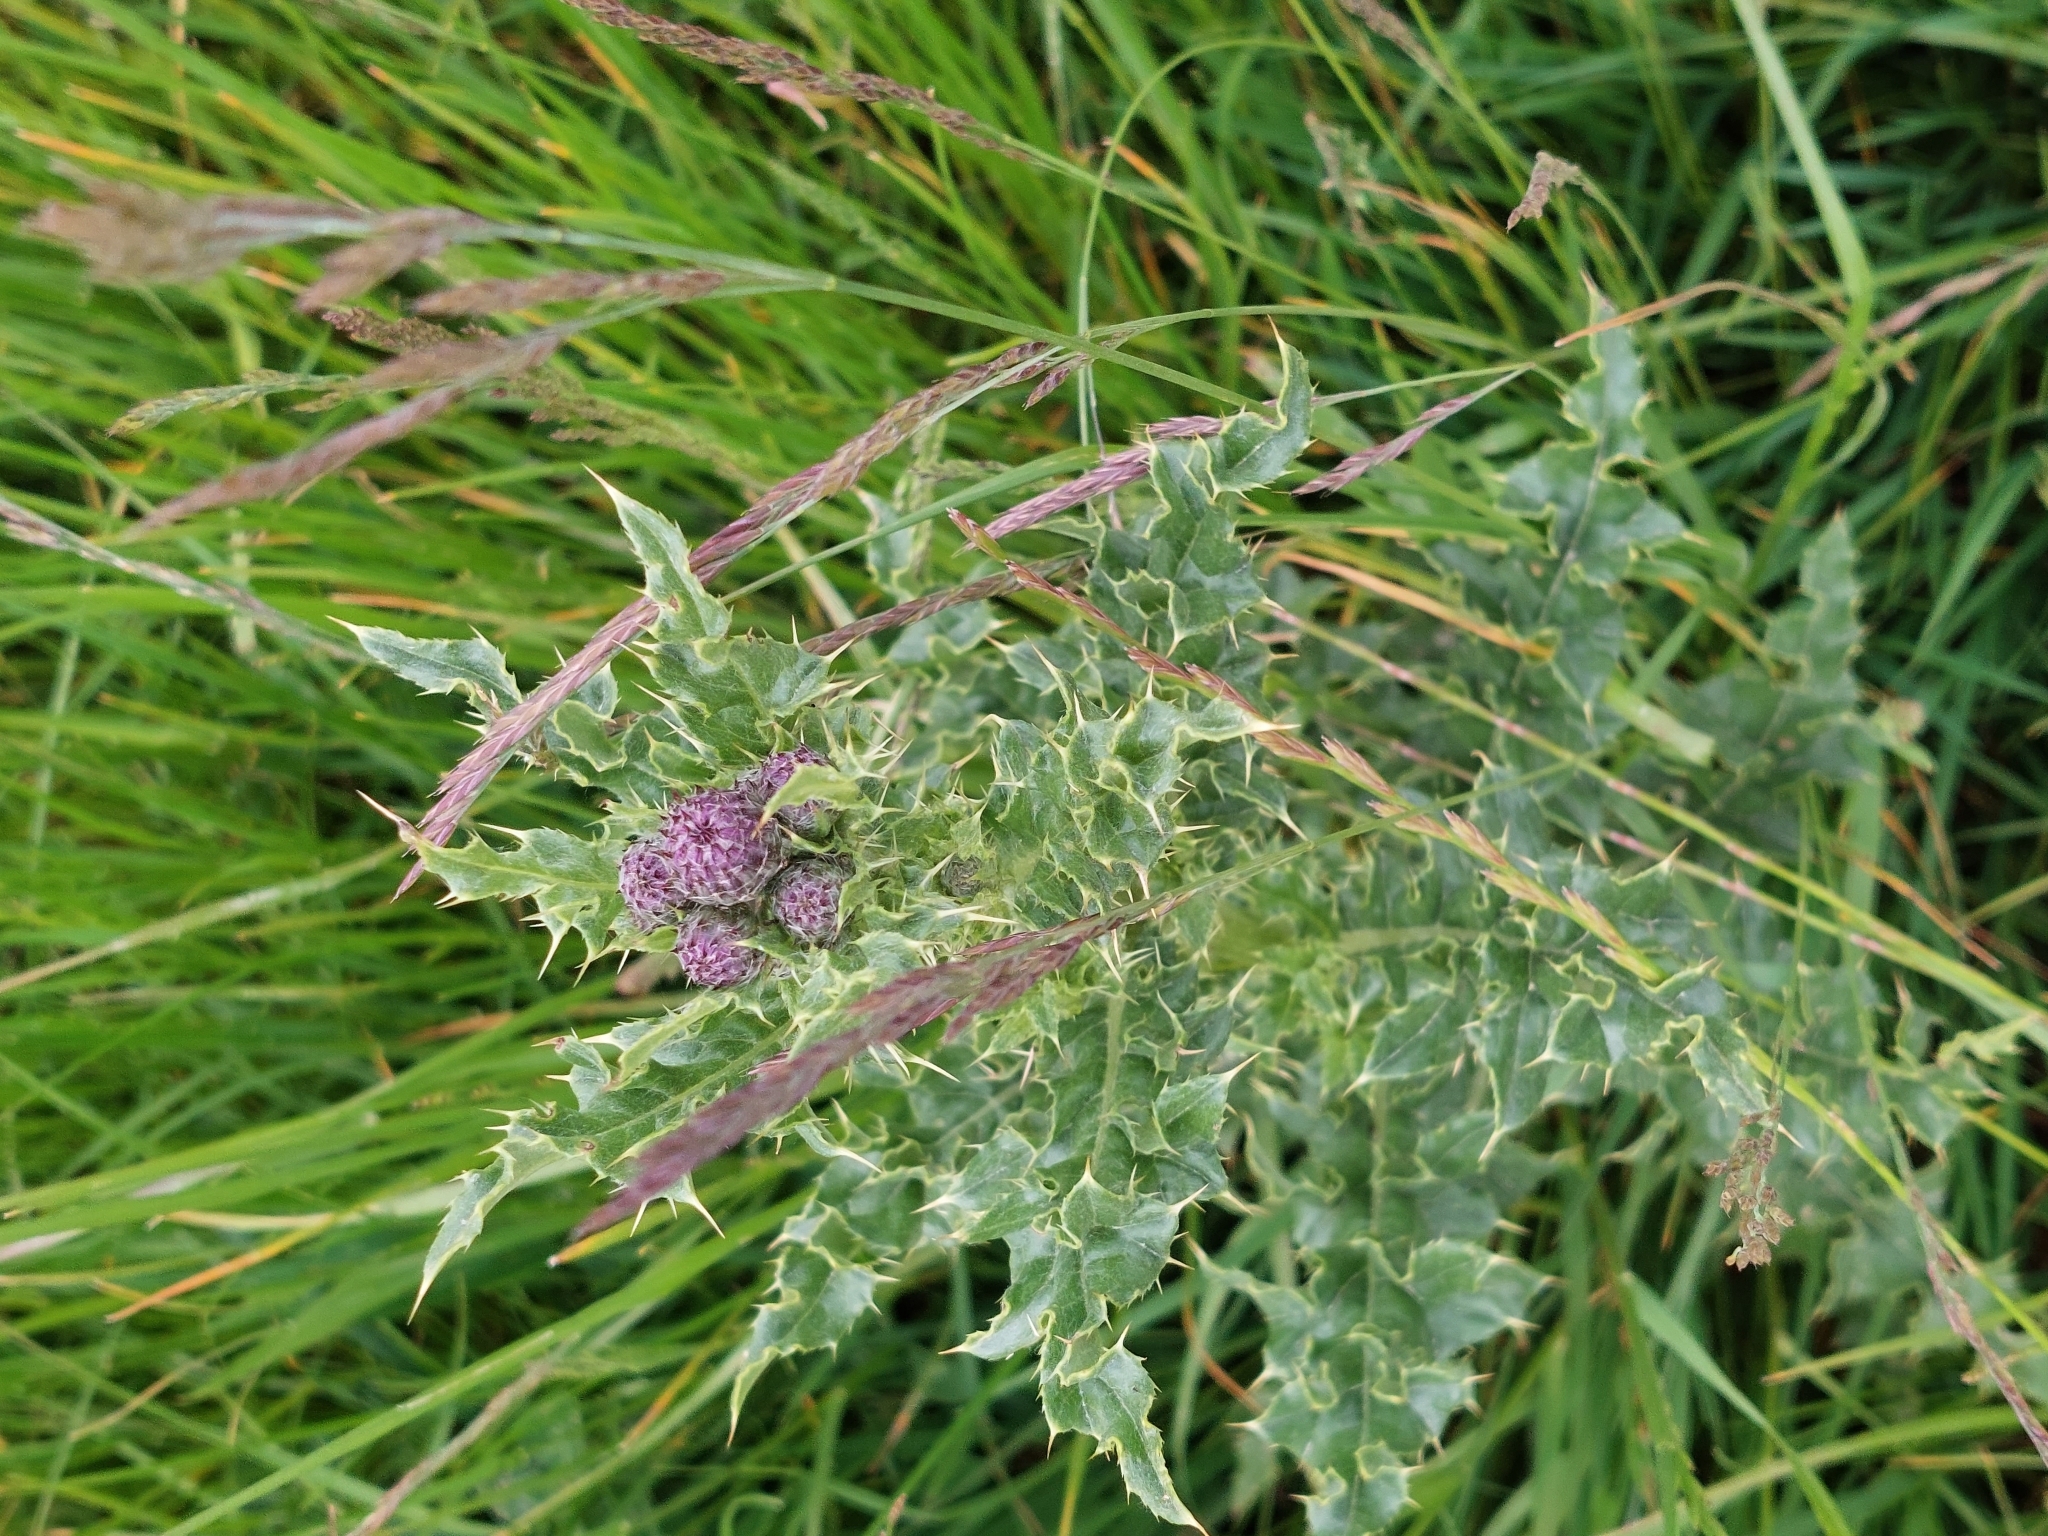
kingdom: Plantae
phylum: Tracheophyta
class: Magnoliopsida
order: Asterales
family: Asteraceae
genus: Cirsium
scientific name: Cirsium arvense
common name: Creeping thistle
